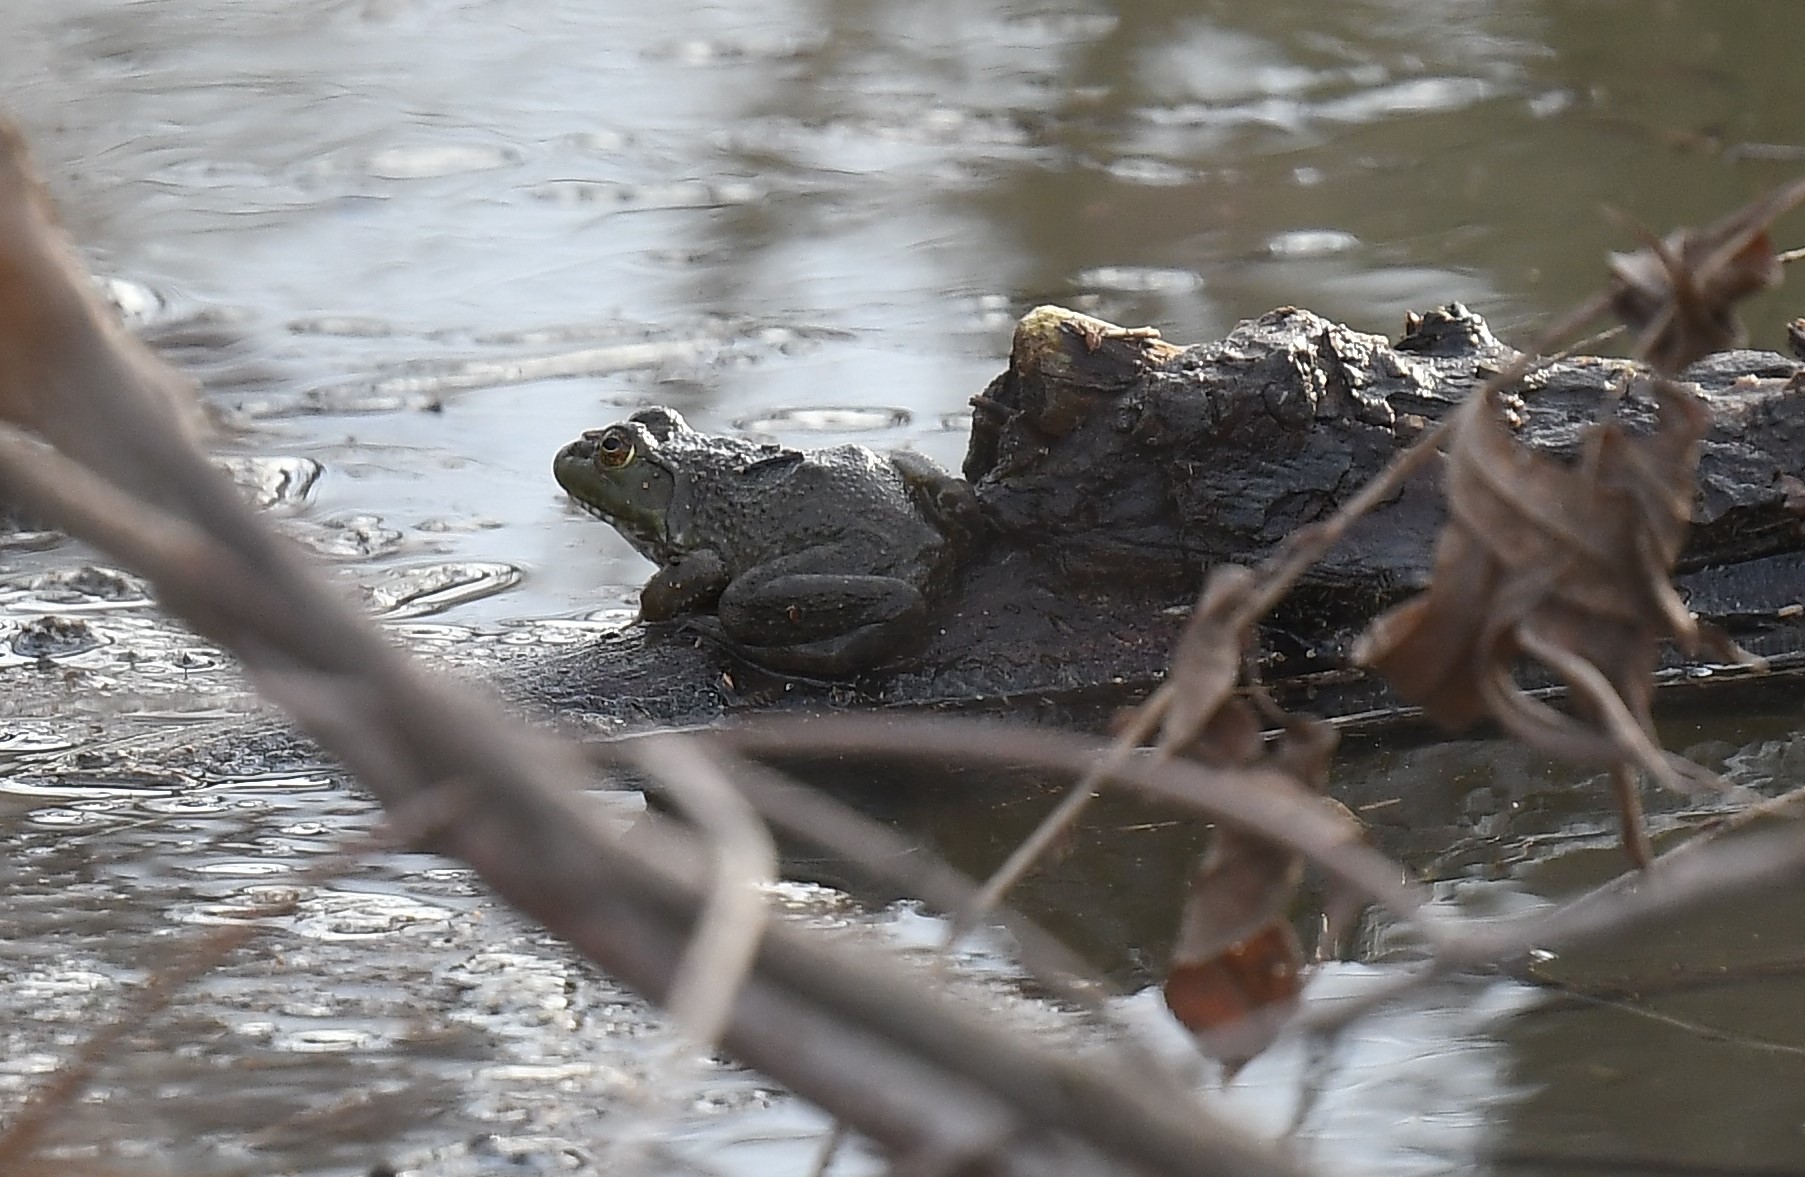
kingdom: Animalia
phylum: Chordata
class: Amphibia
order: Anura
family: Ranidae
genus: Lithobates
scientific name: Lithobates catesbeianus
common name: American bullfrog
